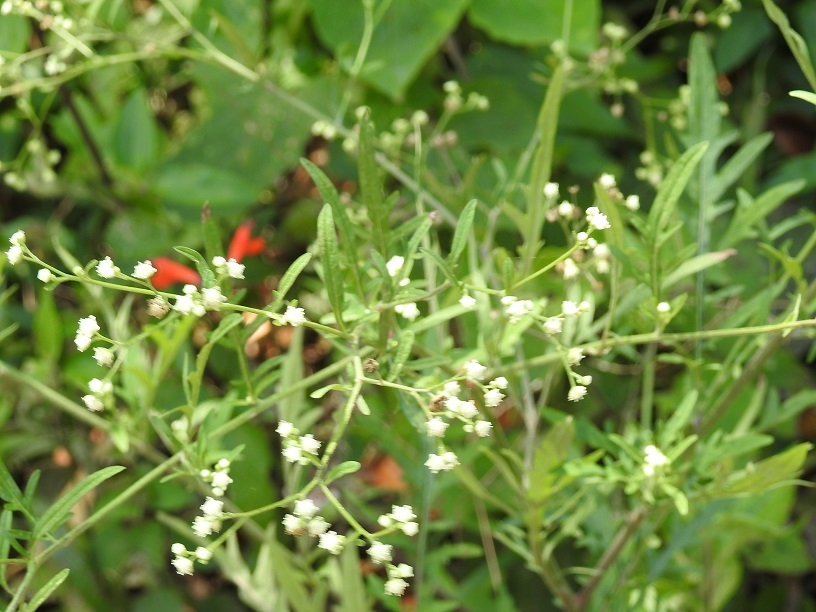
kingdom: Plantae
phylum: Tracheophyta
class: Magnoliopsida
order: Asterales
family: Asteraceae
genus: Parthenium
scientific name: Parthenium hysterophorus
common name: Santa maria feverfew
